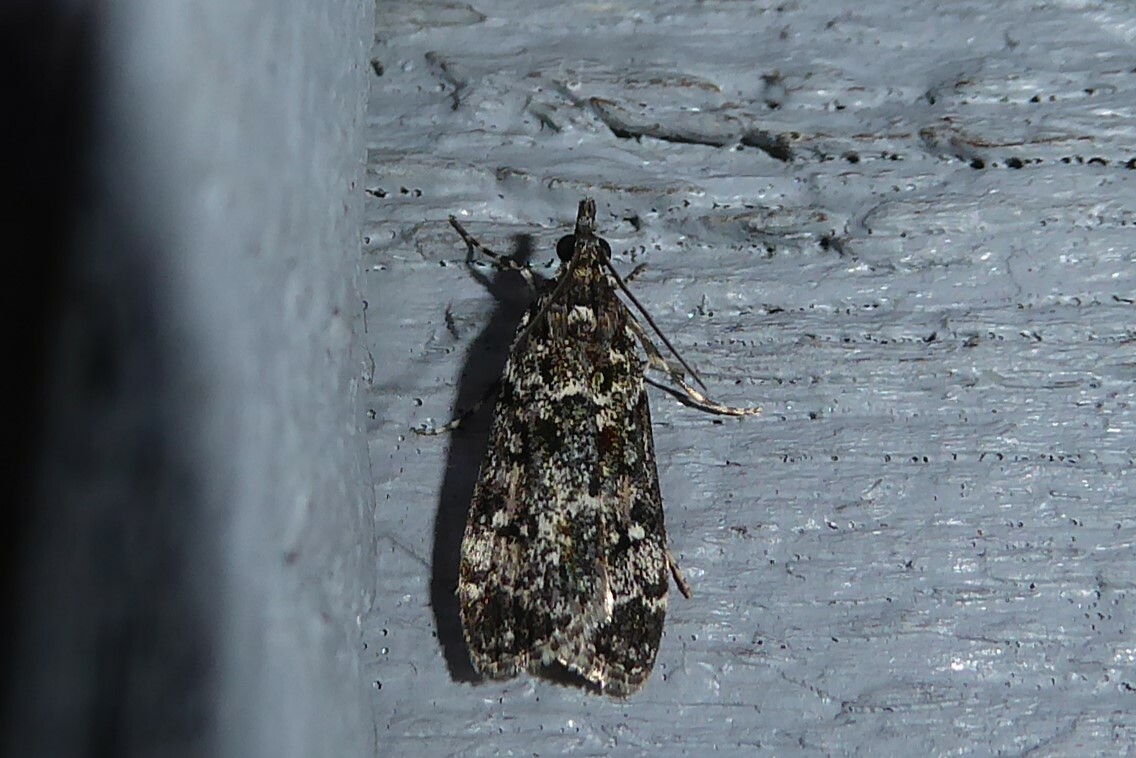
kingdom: Animalia
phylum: Arthropoda
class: Insecta
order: Lepidoptera
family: Crambidae
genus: Eudonia
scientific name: Eudonia philerga
